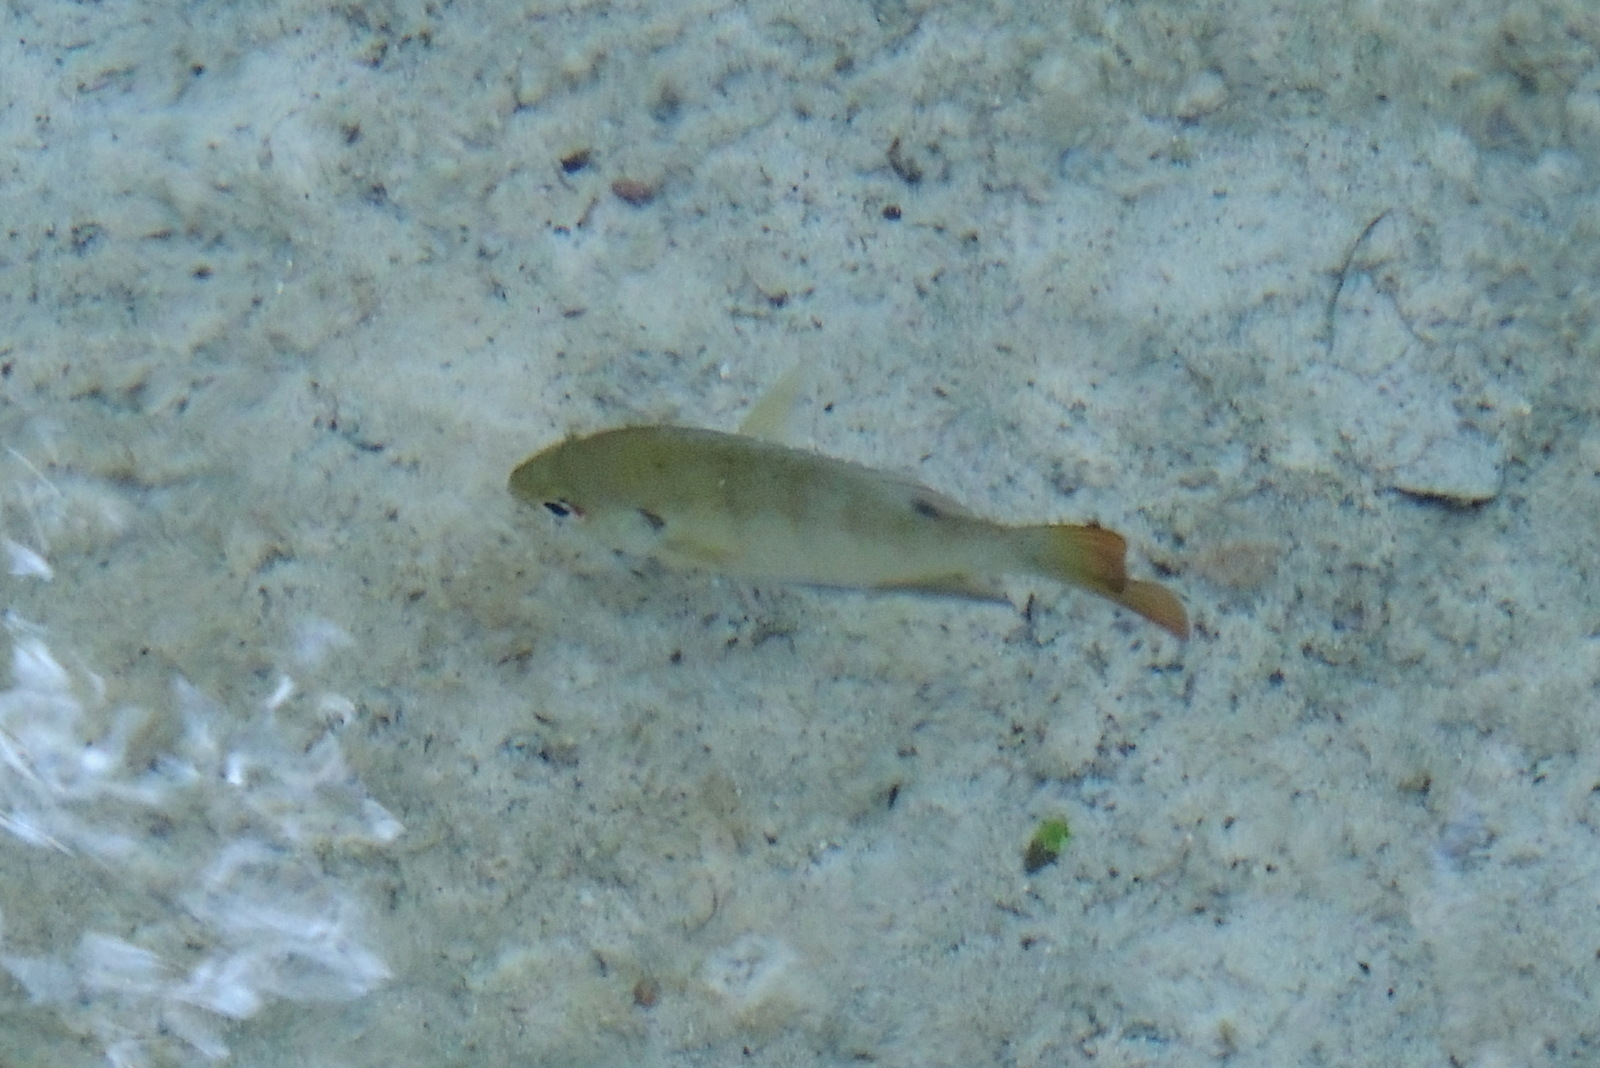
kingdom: Animalia
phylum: Chordata
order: Perciformes
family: Centrarchidae
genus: Lepomis
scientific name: Lepomis macrochirus
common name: Bluegill
